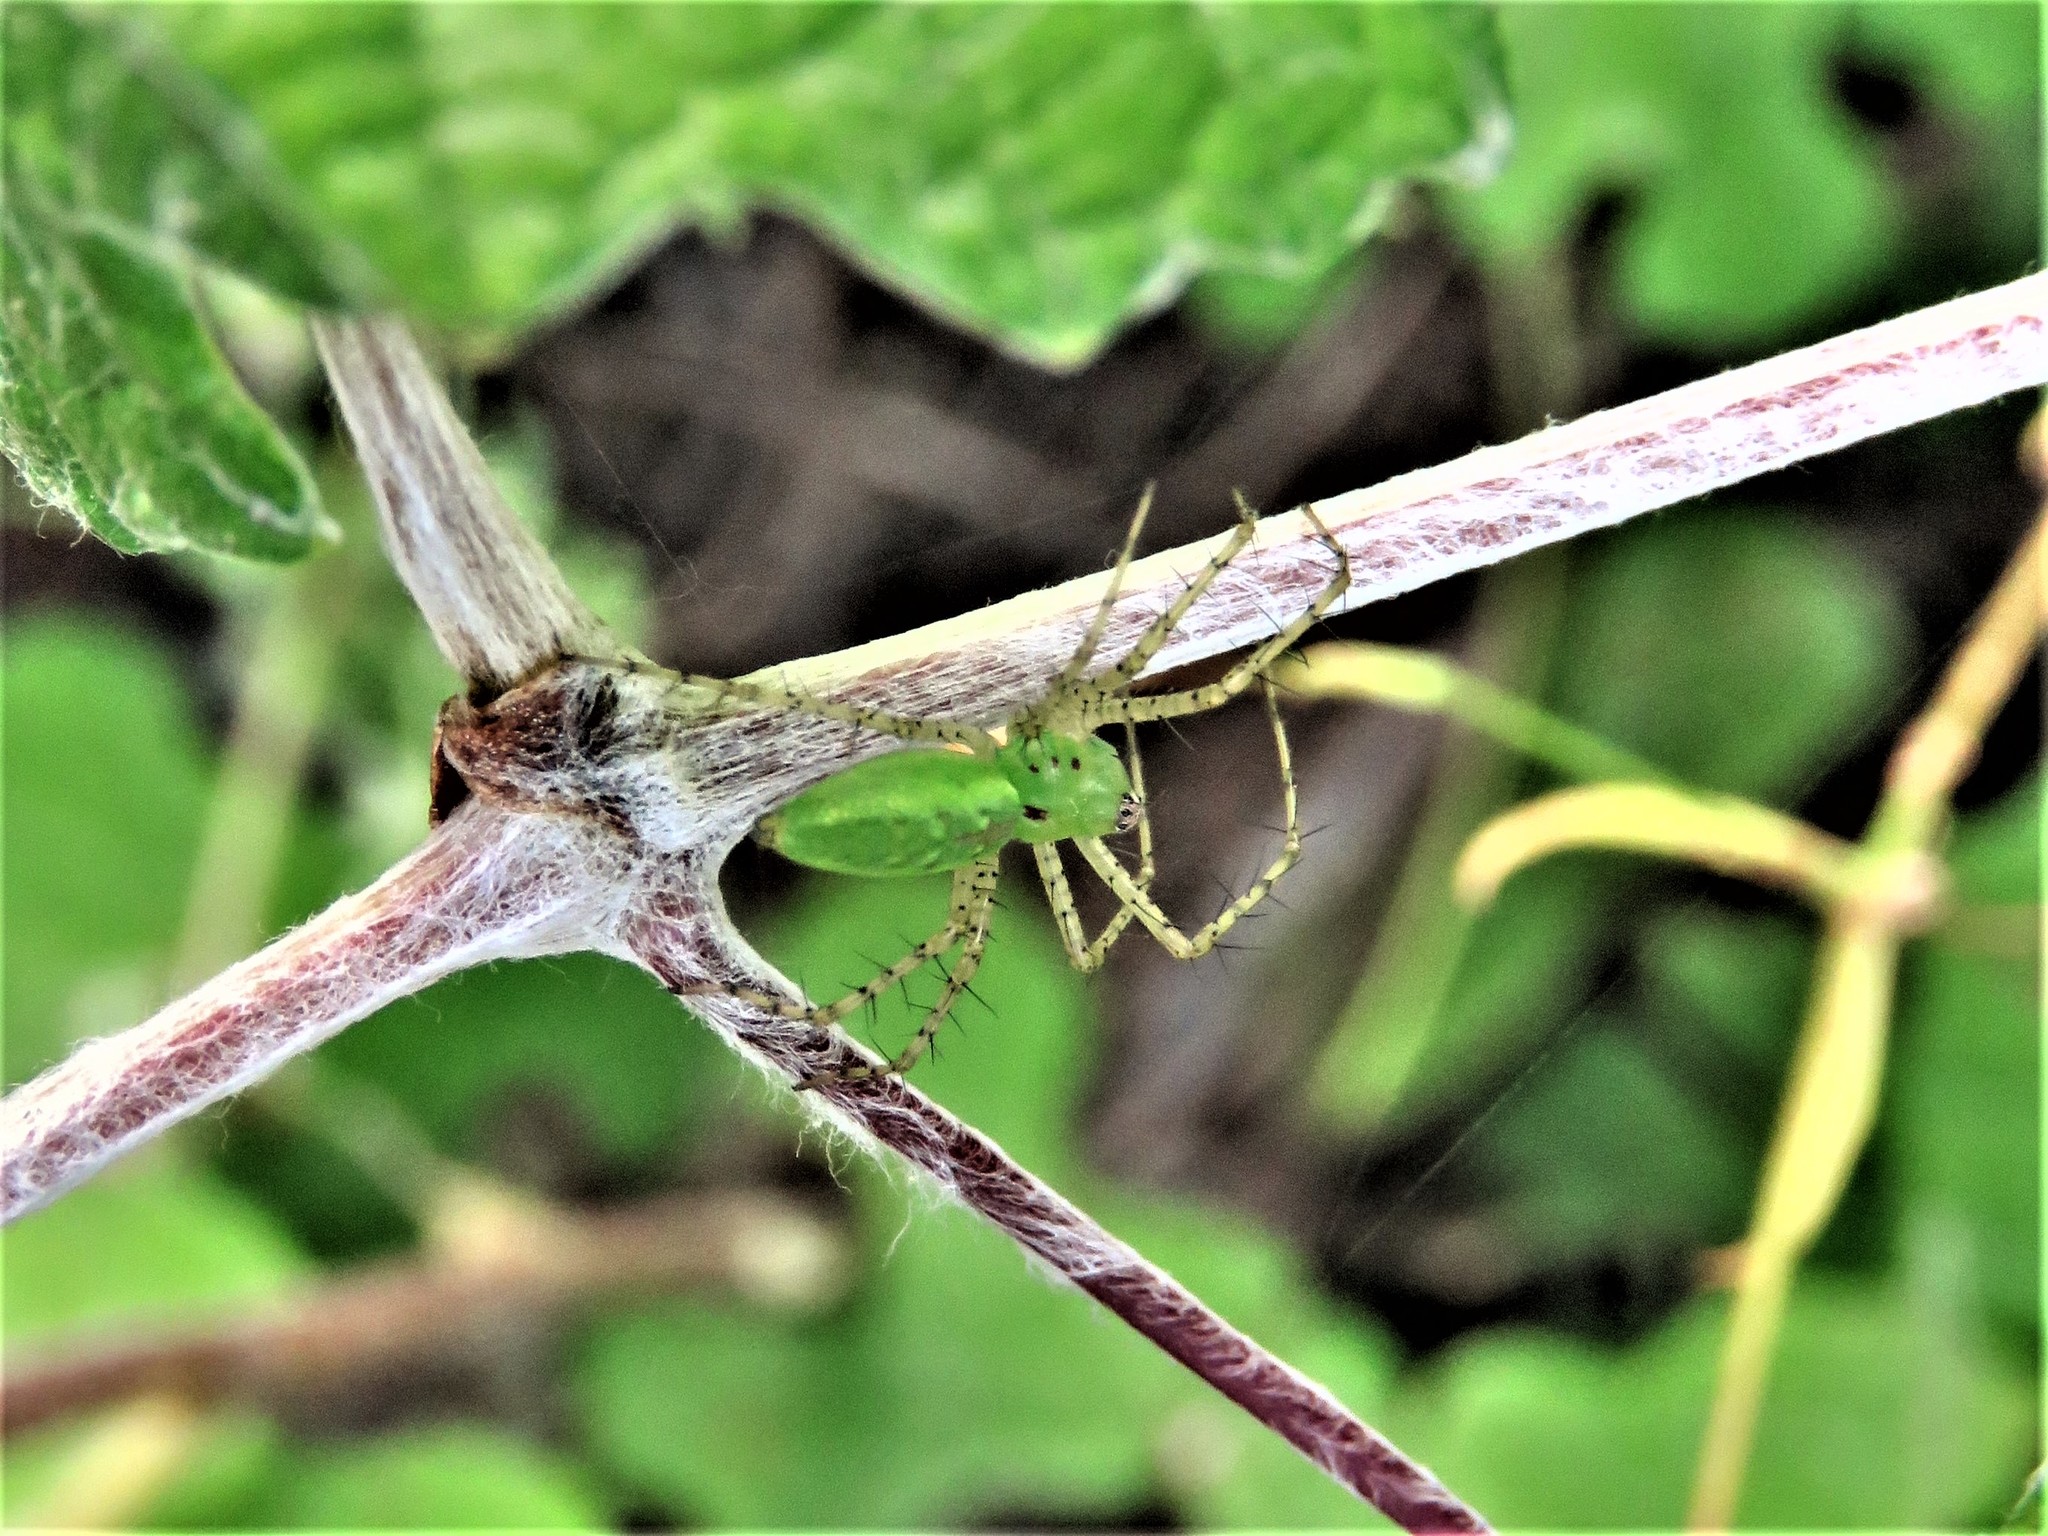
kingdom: Animalia
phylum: Arthropoda
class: Arachnida
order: Araneae
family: Oxyopidae
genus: Peucetia
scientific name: Peucetia viridans
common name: Lynx spiders
